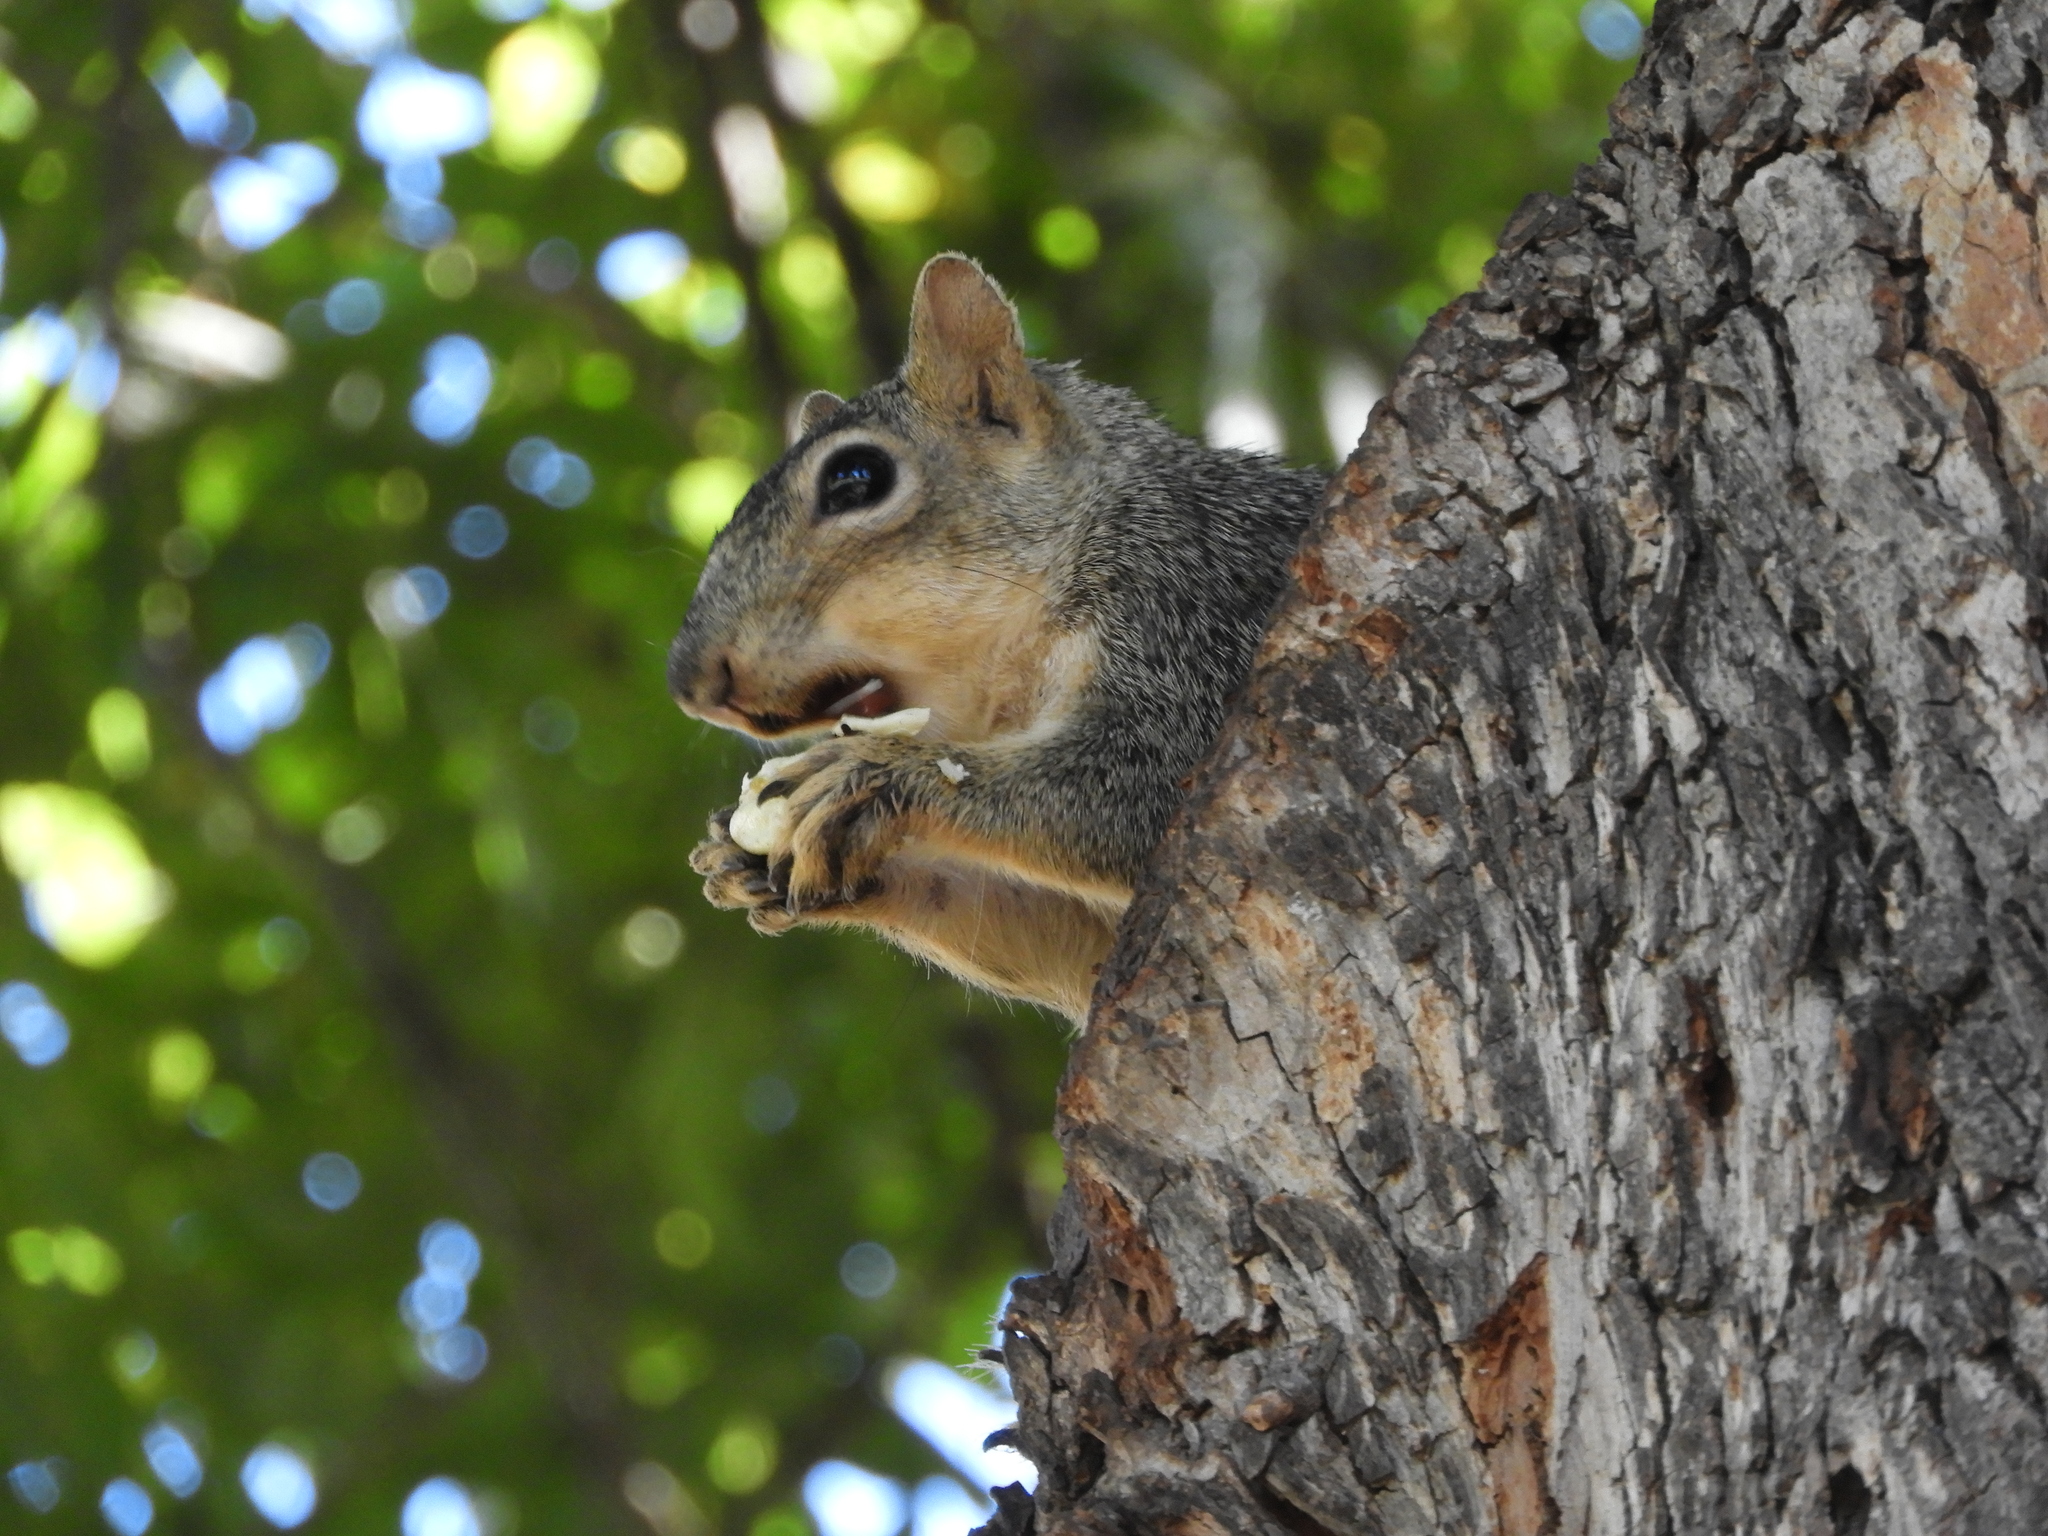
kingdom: Animalia
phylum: Chordata
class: Mammalia
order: Rodentia
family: Sciuridae
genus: Sciurus
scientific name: Sciurus niger
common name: Fox squirrel
